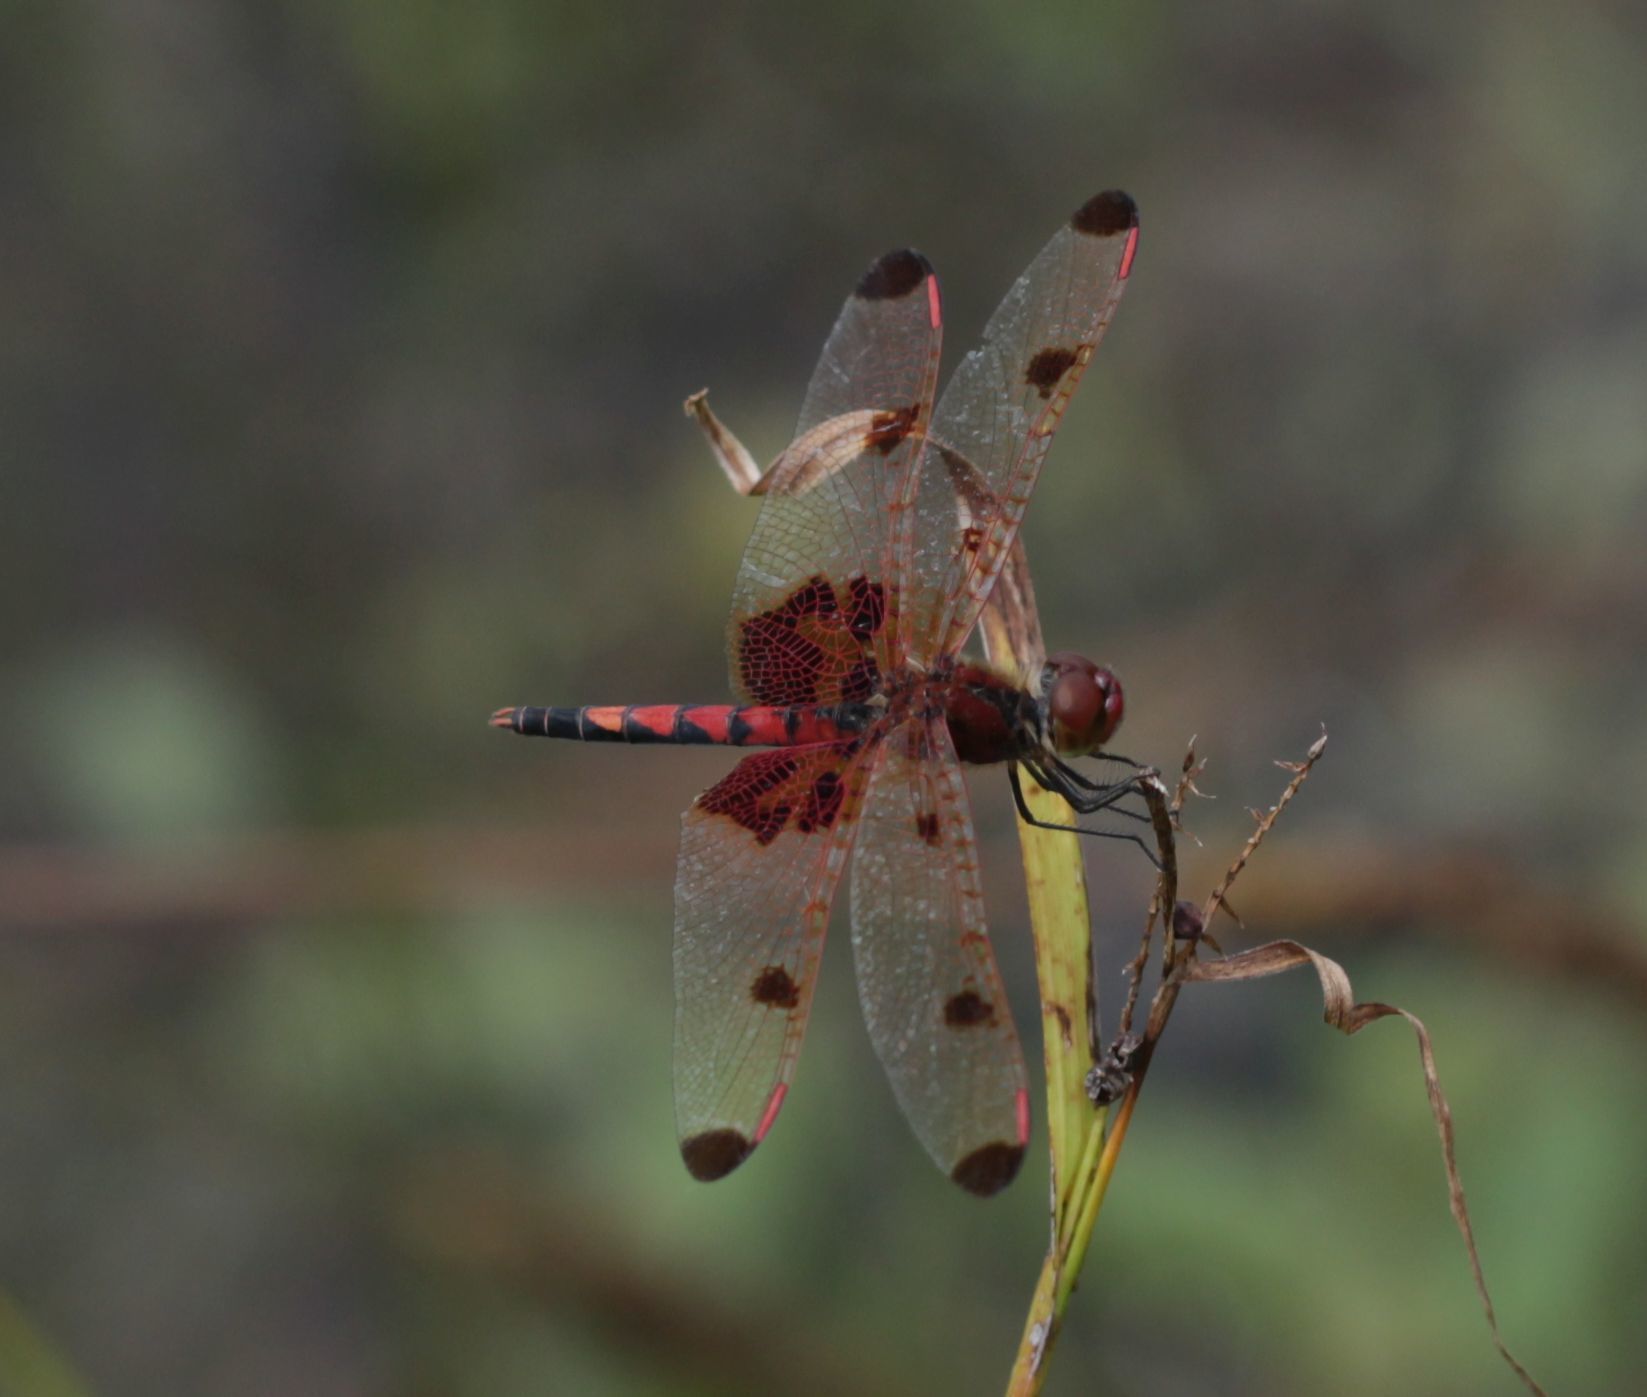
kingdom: Animalia
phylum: Arthropoda
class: Insecta
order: Odonata
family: Libellulidae
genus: Celithemis
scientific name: Celithemis elisa
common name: Calico pennant
